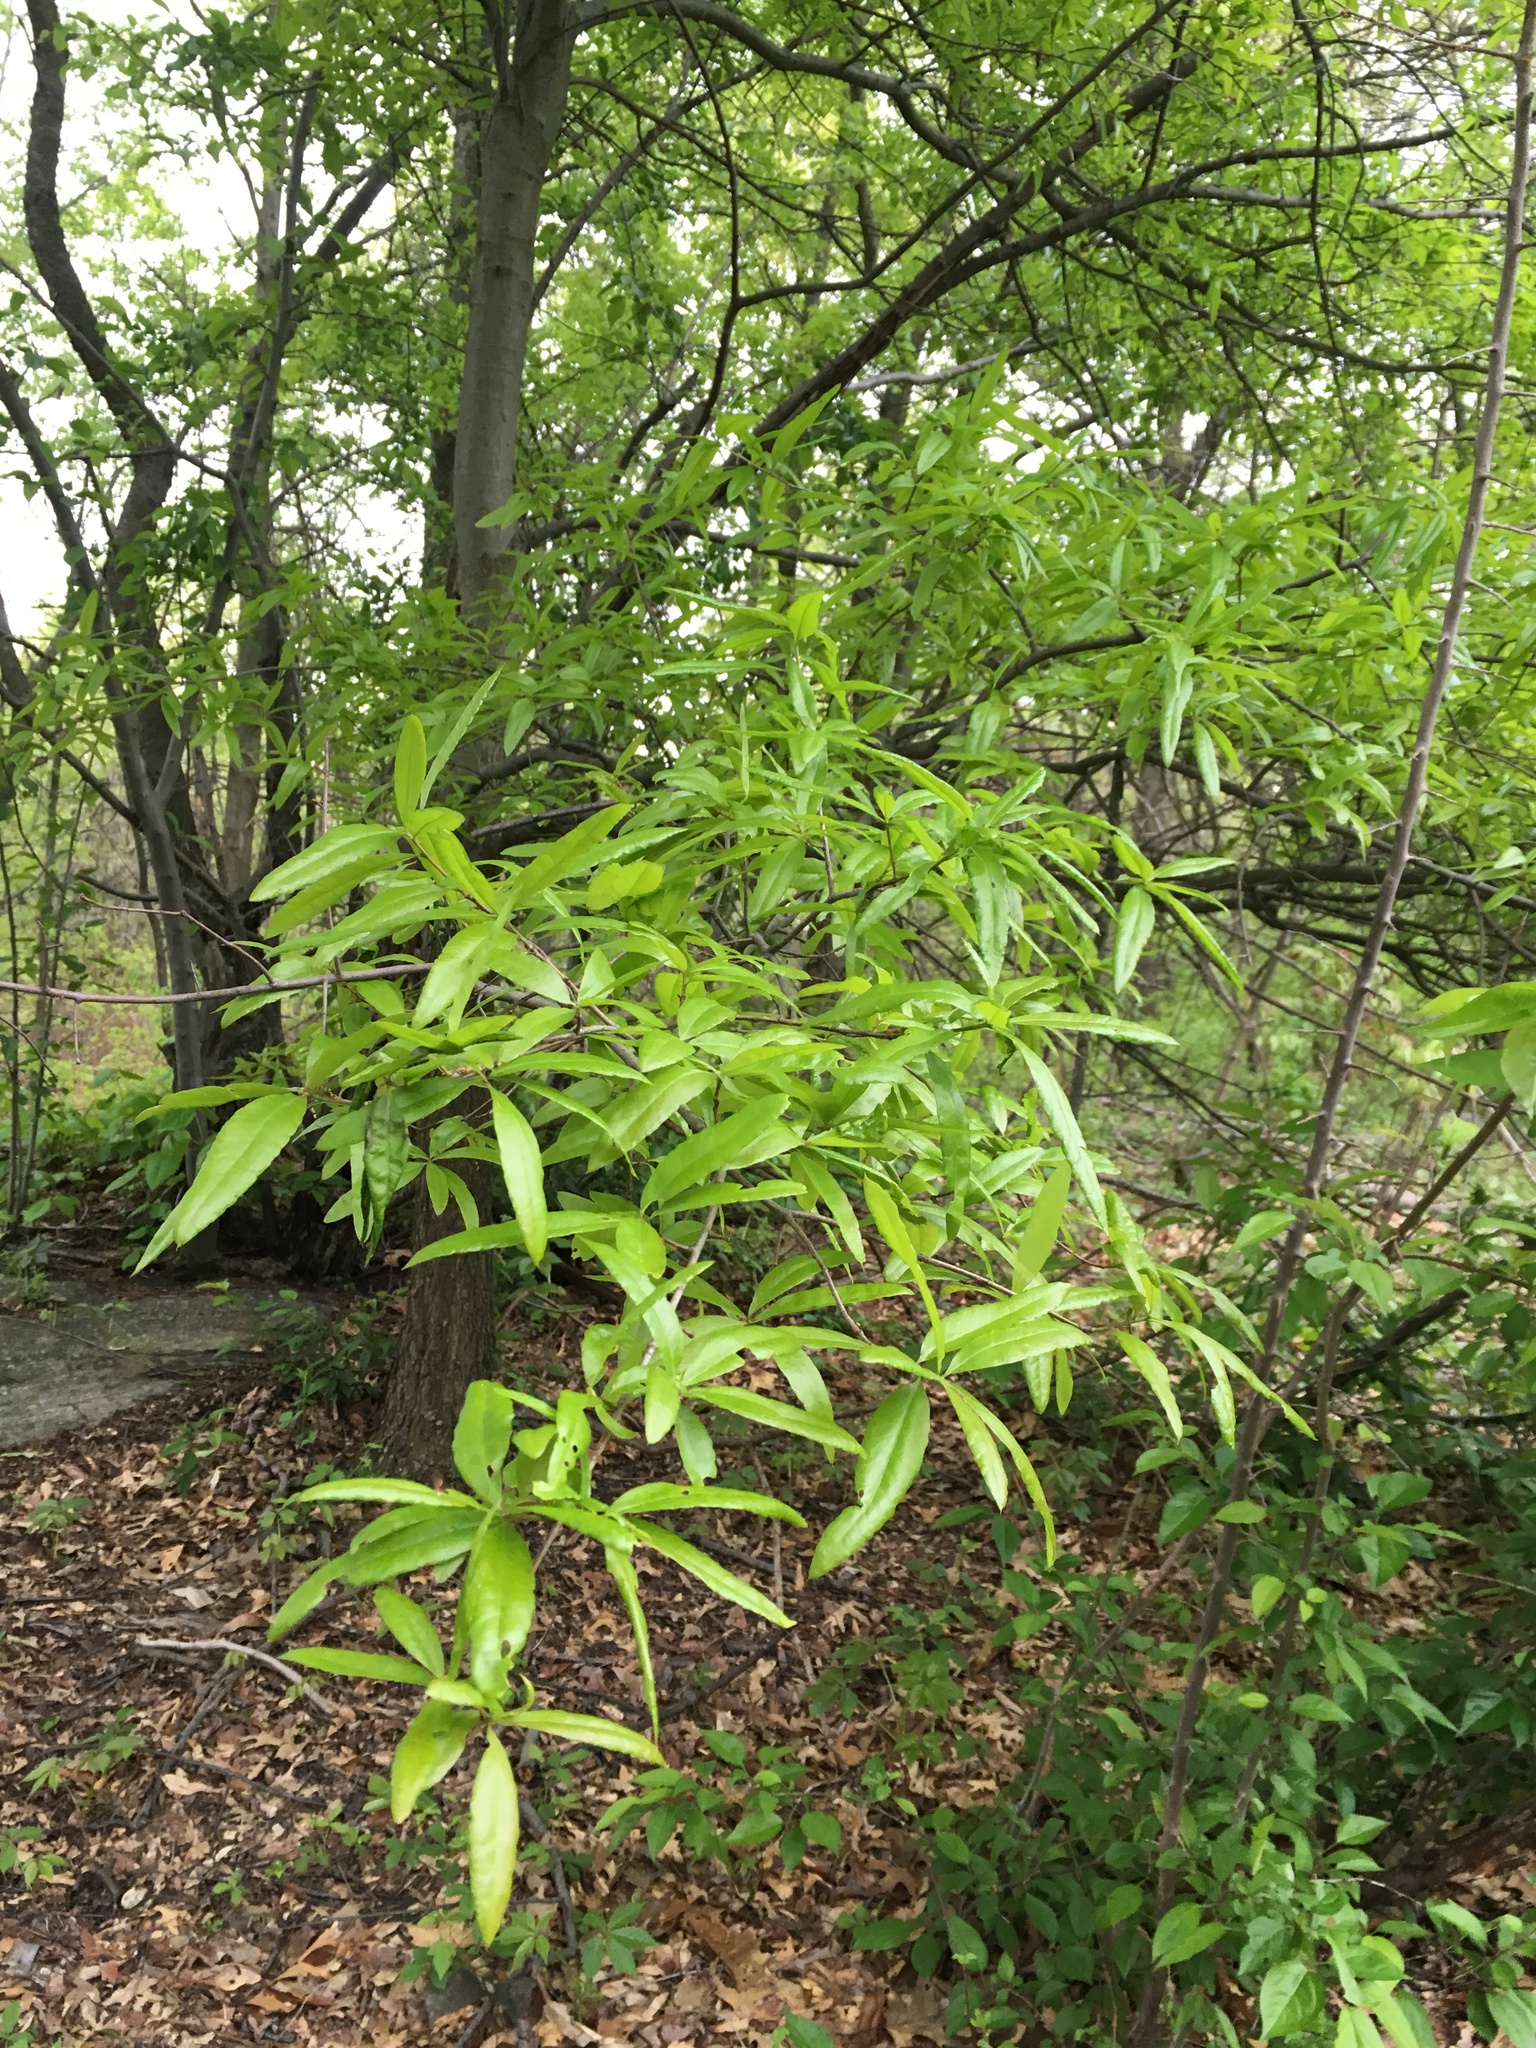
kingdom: Plantae
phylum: Tracheophyta
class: Magnoliopsida
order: Fagales
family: Fagaceae
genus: Quercus
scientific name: Quercus phellos
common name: Willow oak
